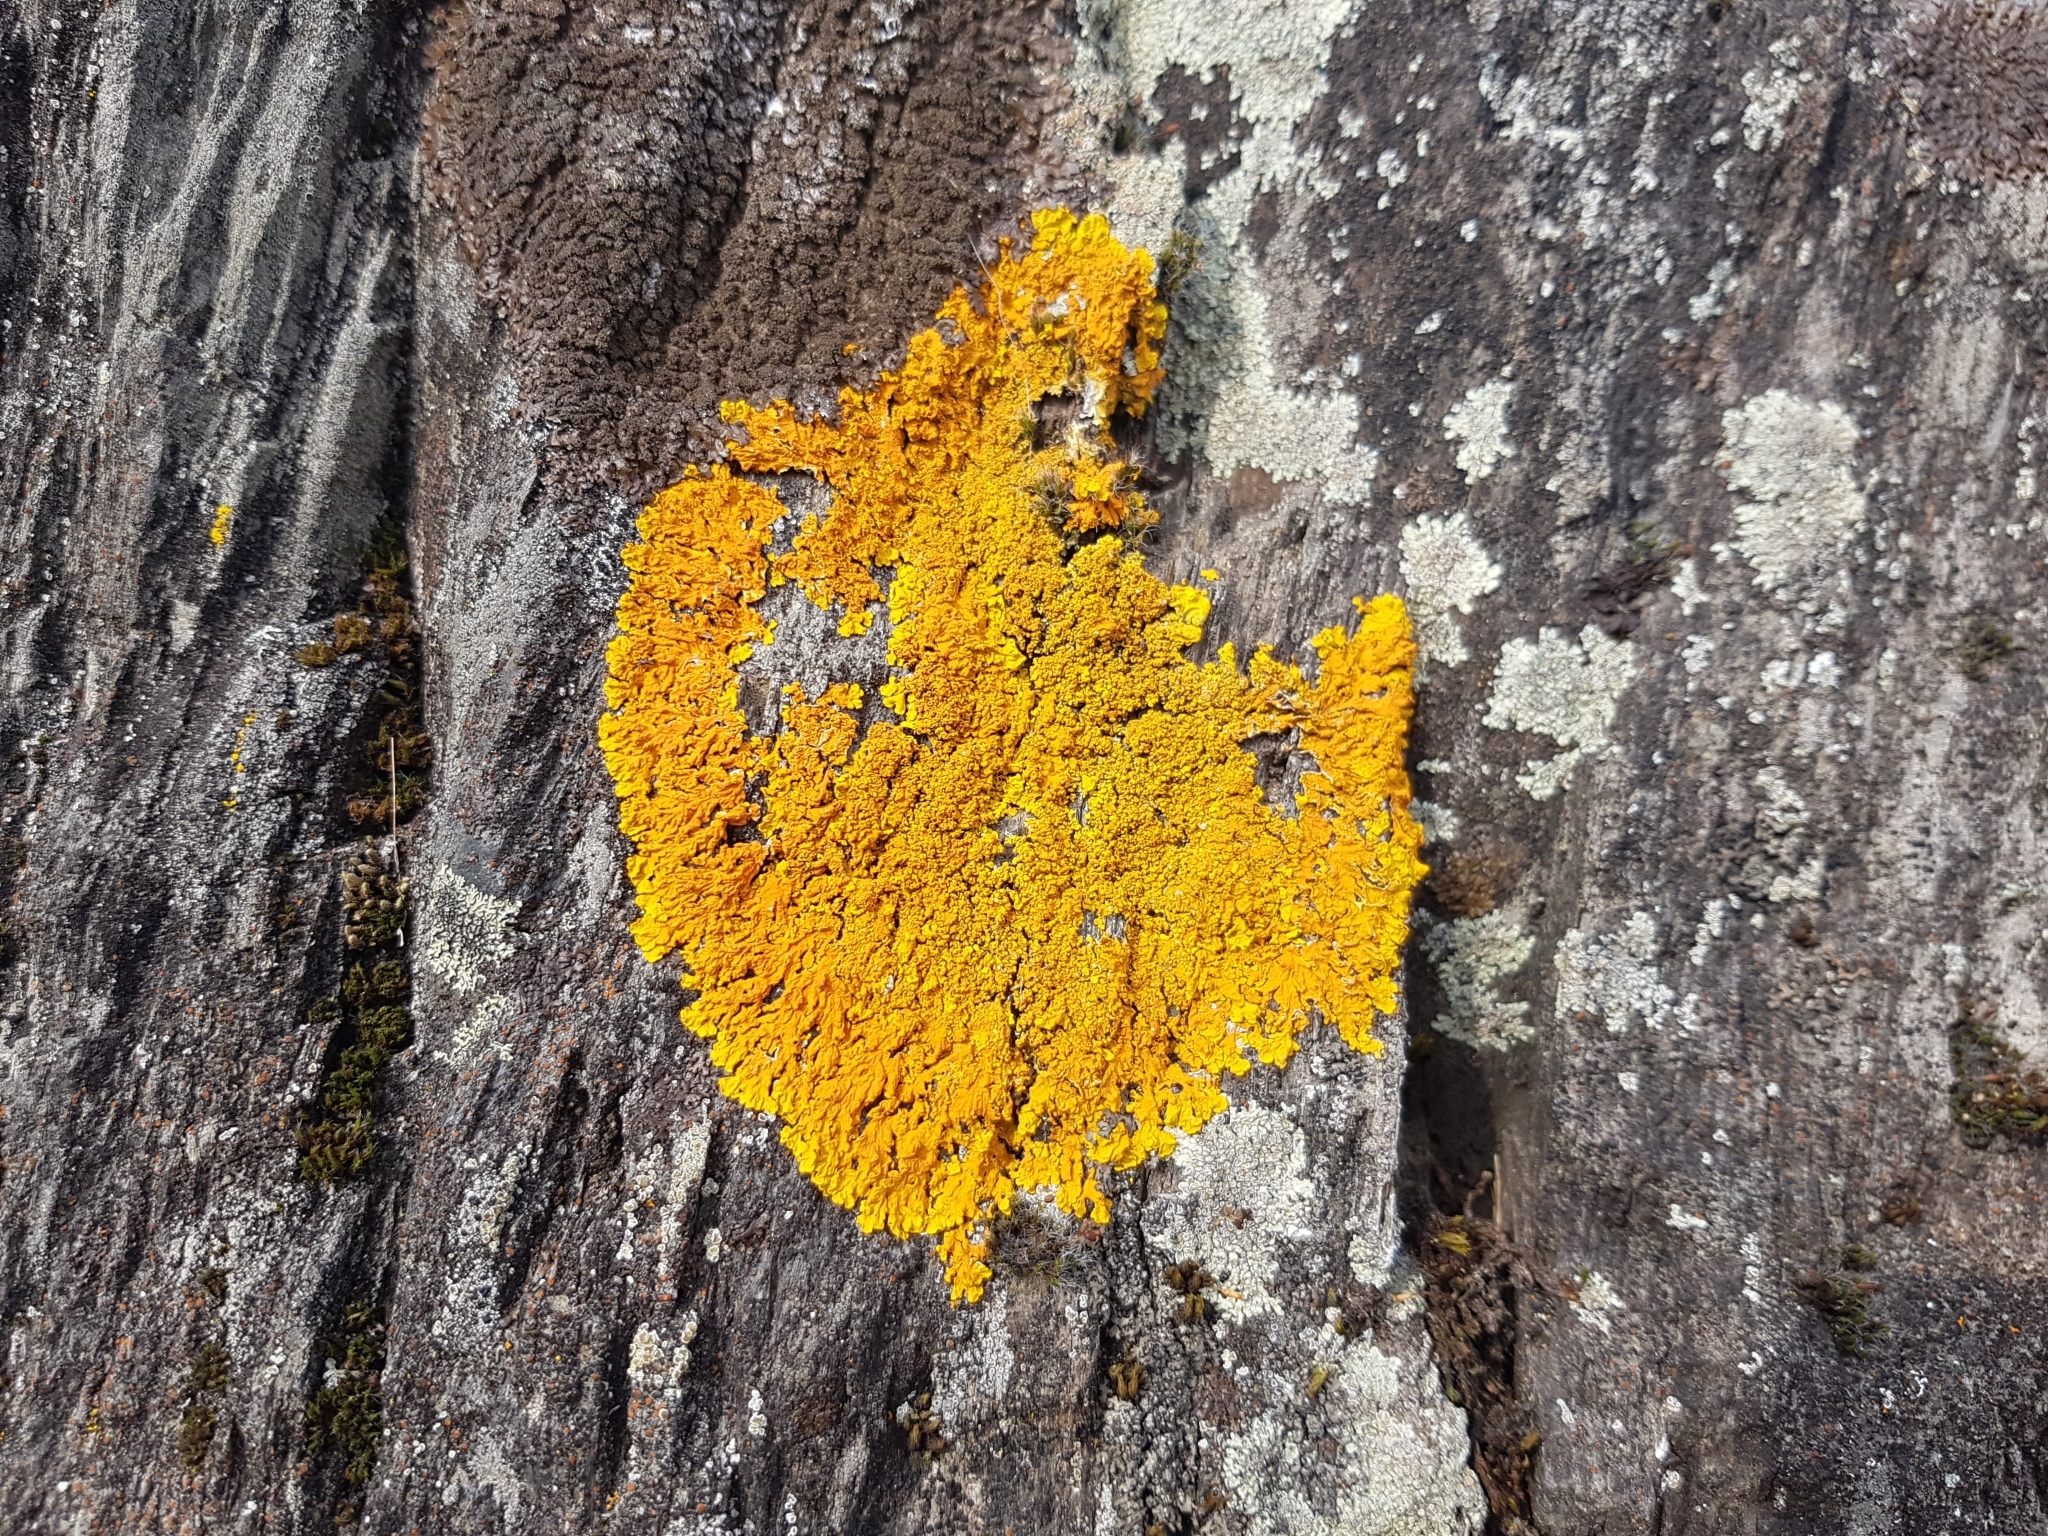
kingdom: Fungi
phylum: Ascomycota
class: Lecanoromycetes
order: Teloschistales
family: Teloschistaceae
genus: Xanthoria
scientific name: Xanthoria calcicola
